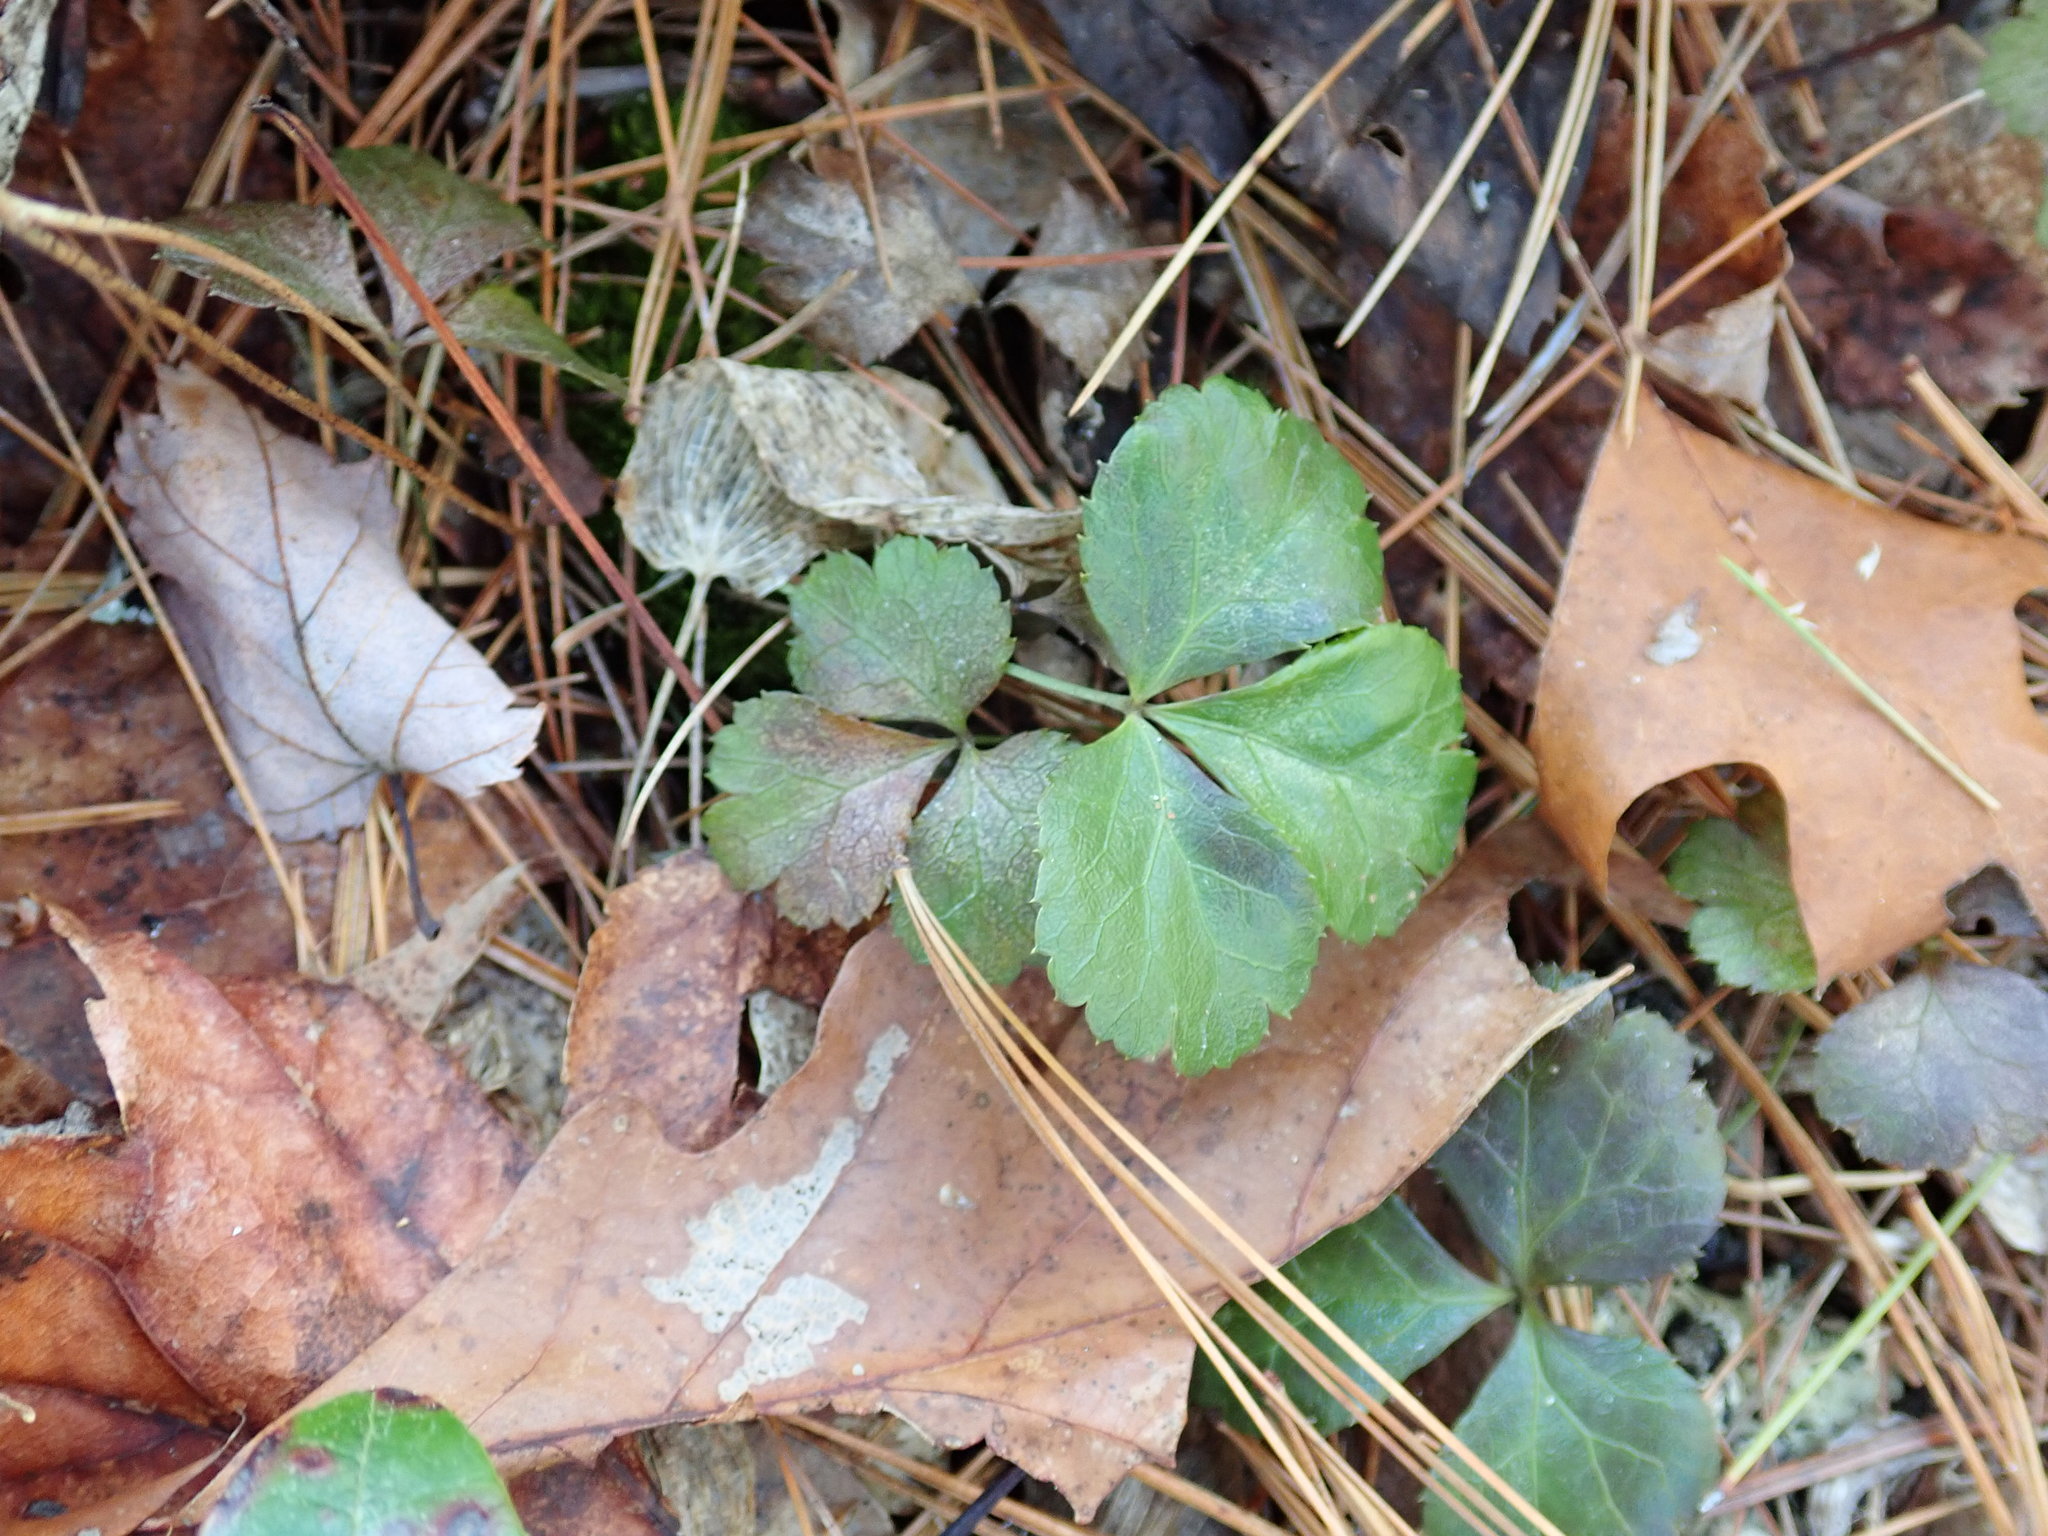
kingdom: Plantae
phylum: Tracheophyta
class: Magnoliopsida
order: Ranunculales
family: Ranunculaceae
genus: Coptis
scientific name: Coptis trifolia
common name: Canker-root
